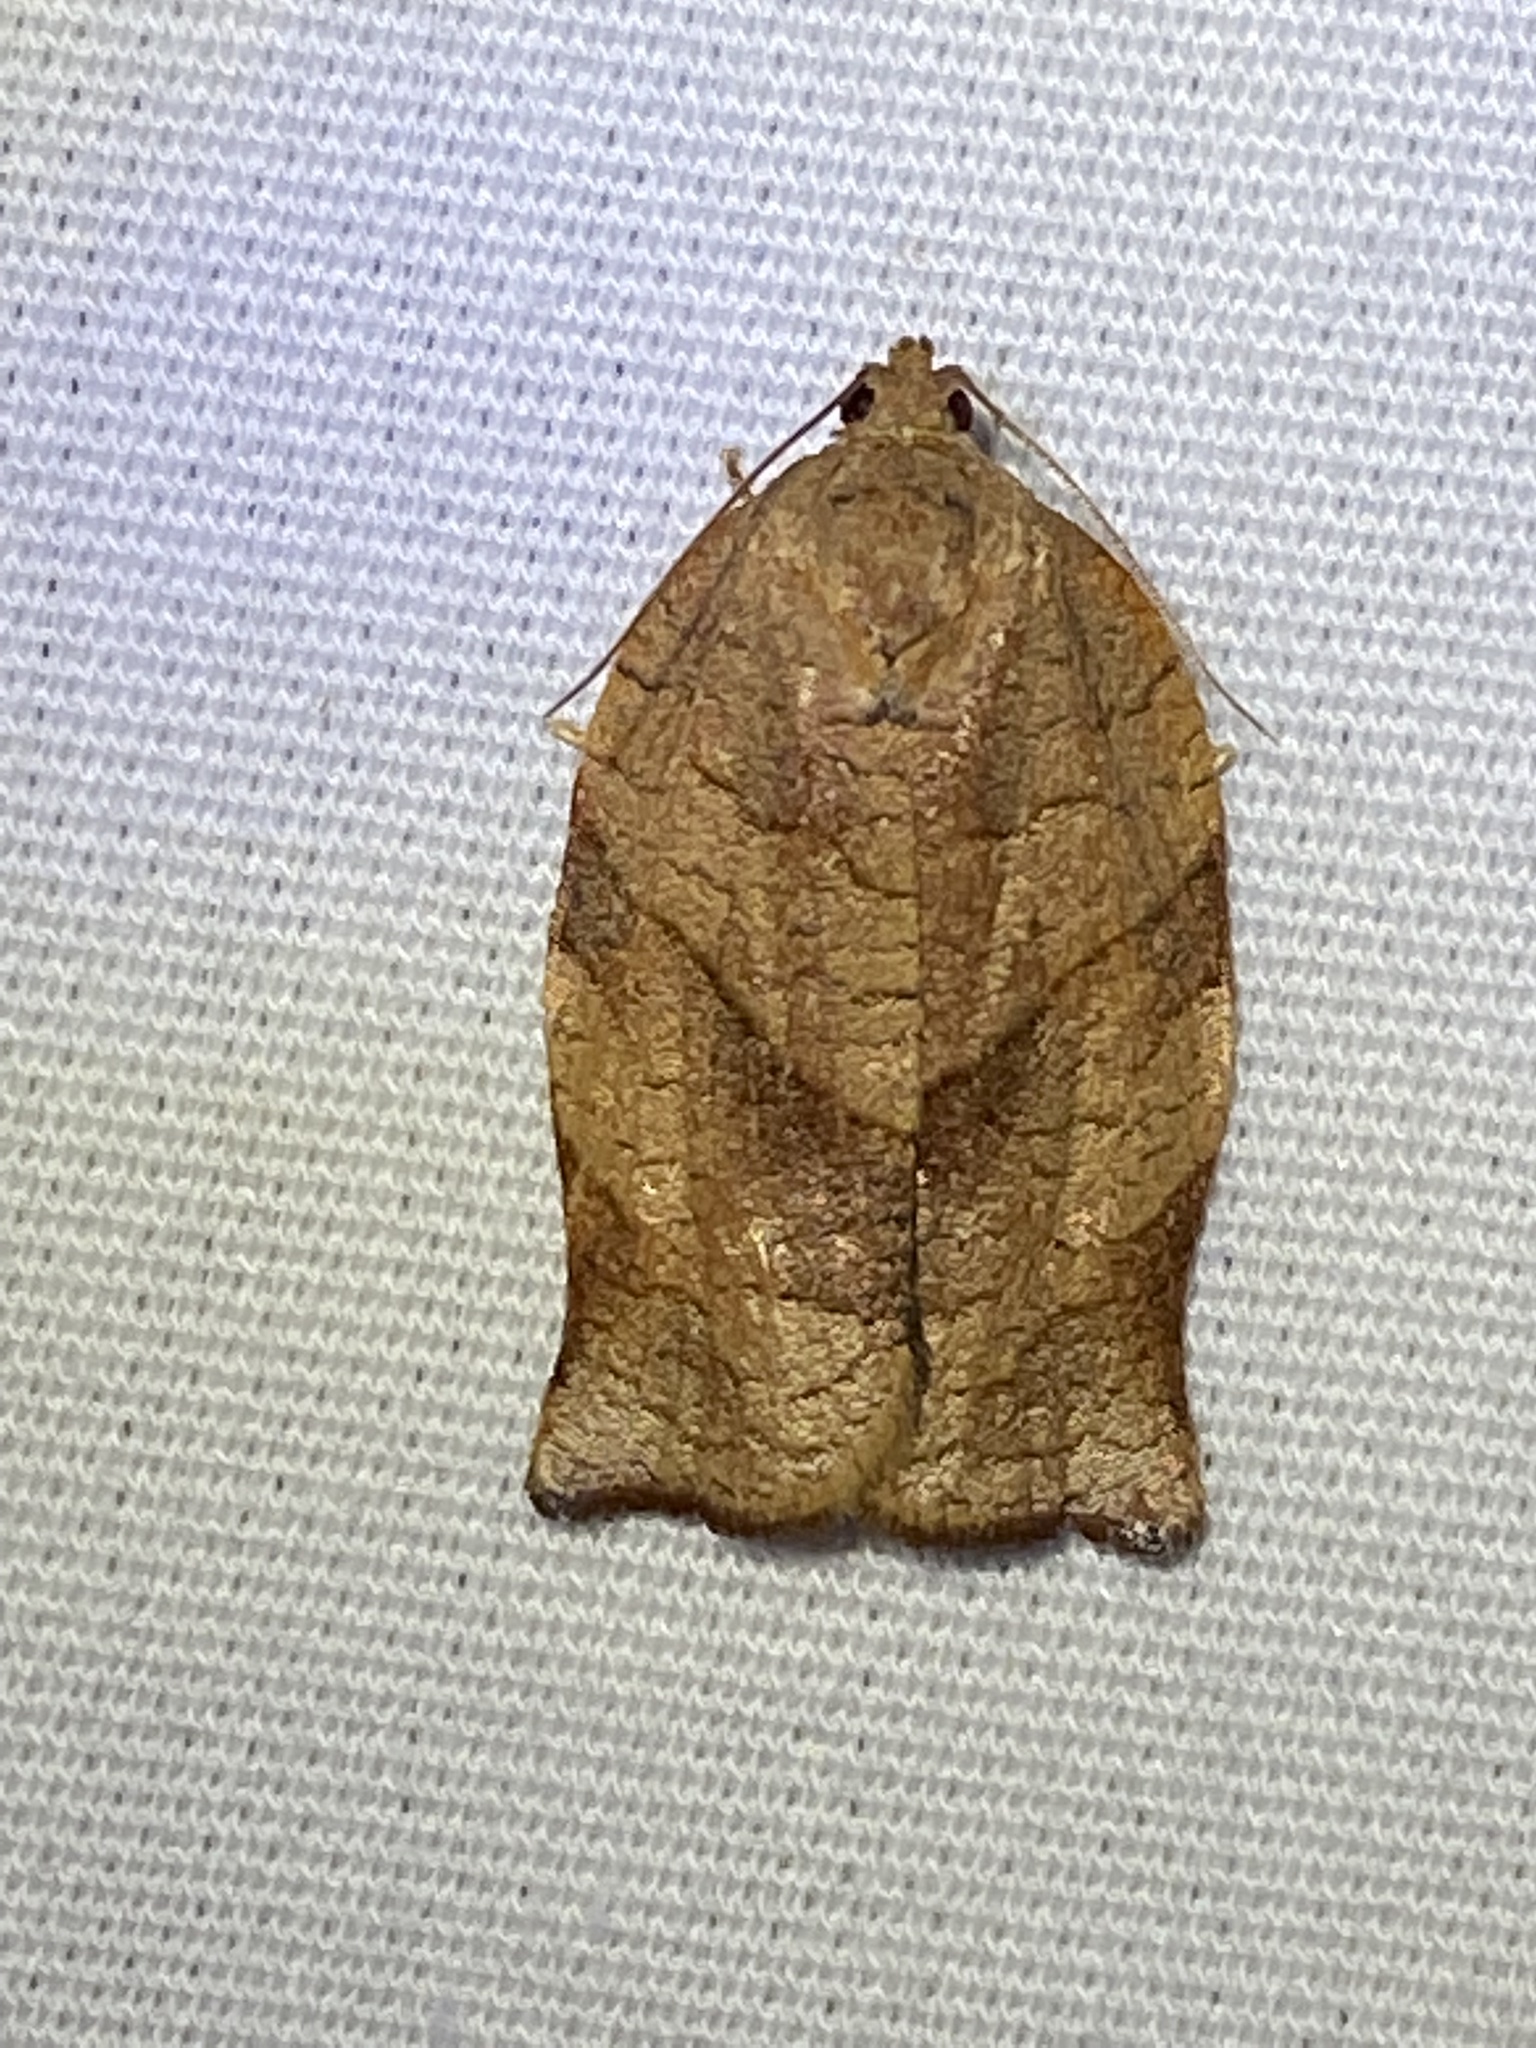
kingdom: Animalia
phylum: Arthropoda
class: Insecta
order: Lepidoptera
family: Tortricidae
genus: Choristoneura
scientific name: Choristoneura rosaceana
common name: Oblique-banded leafroller moth
